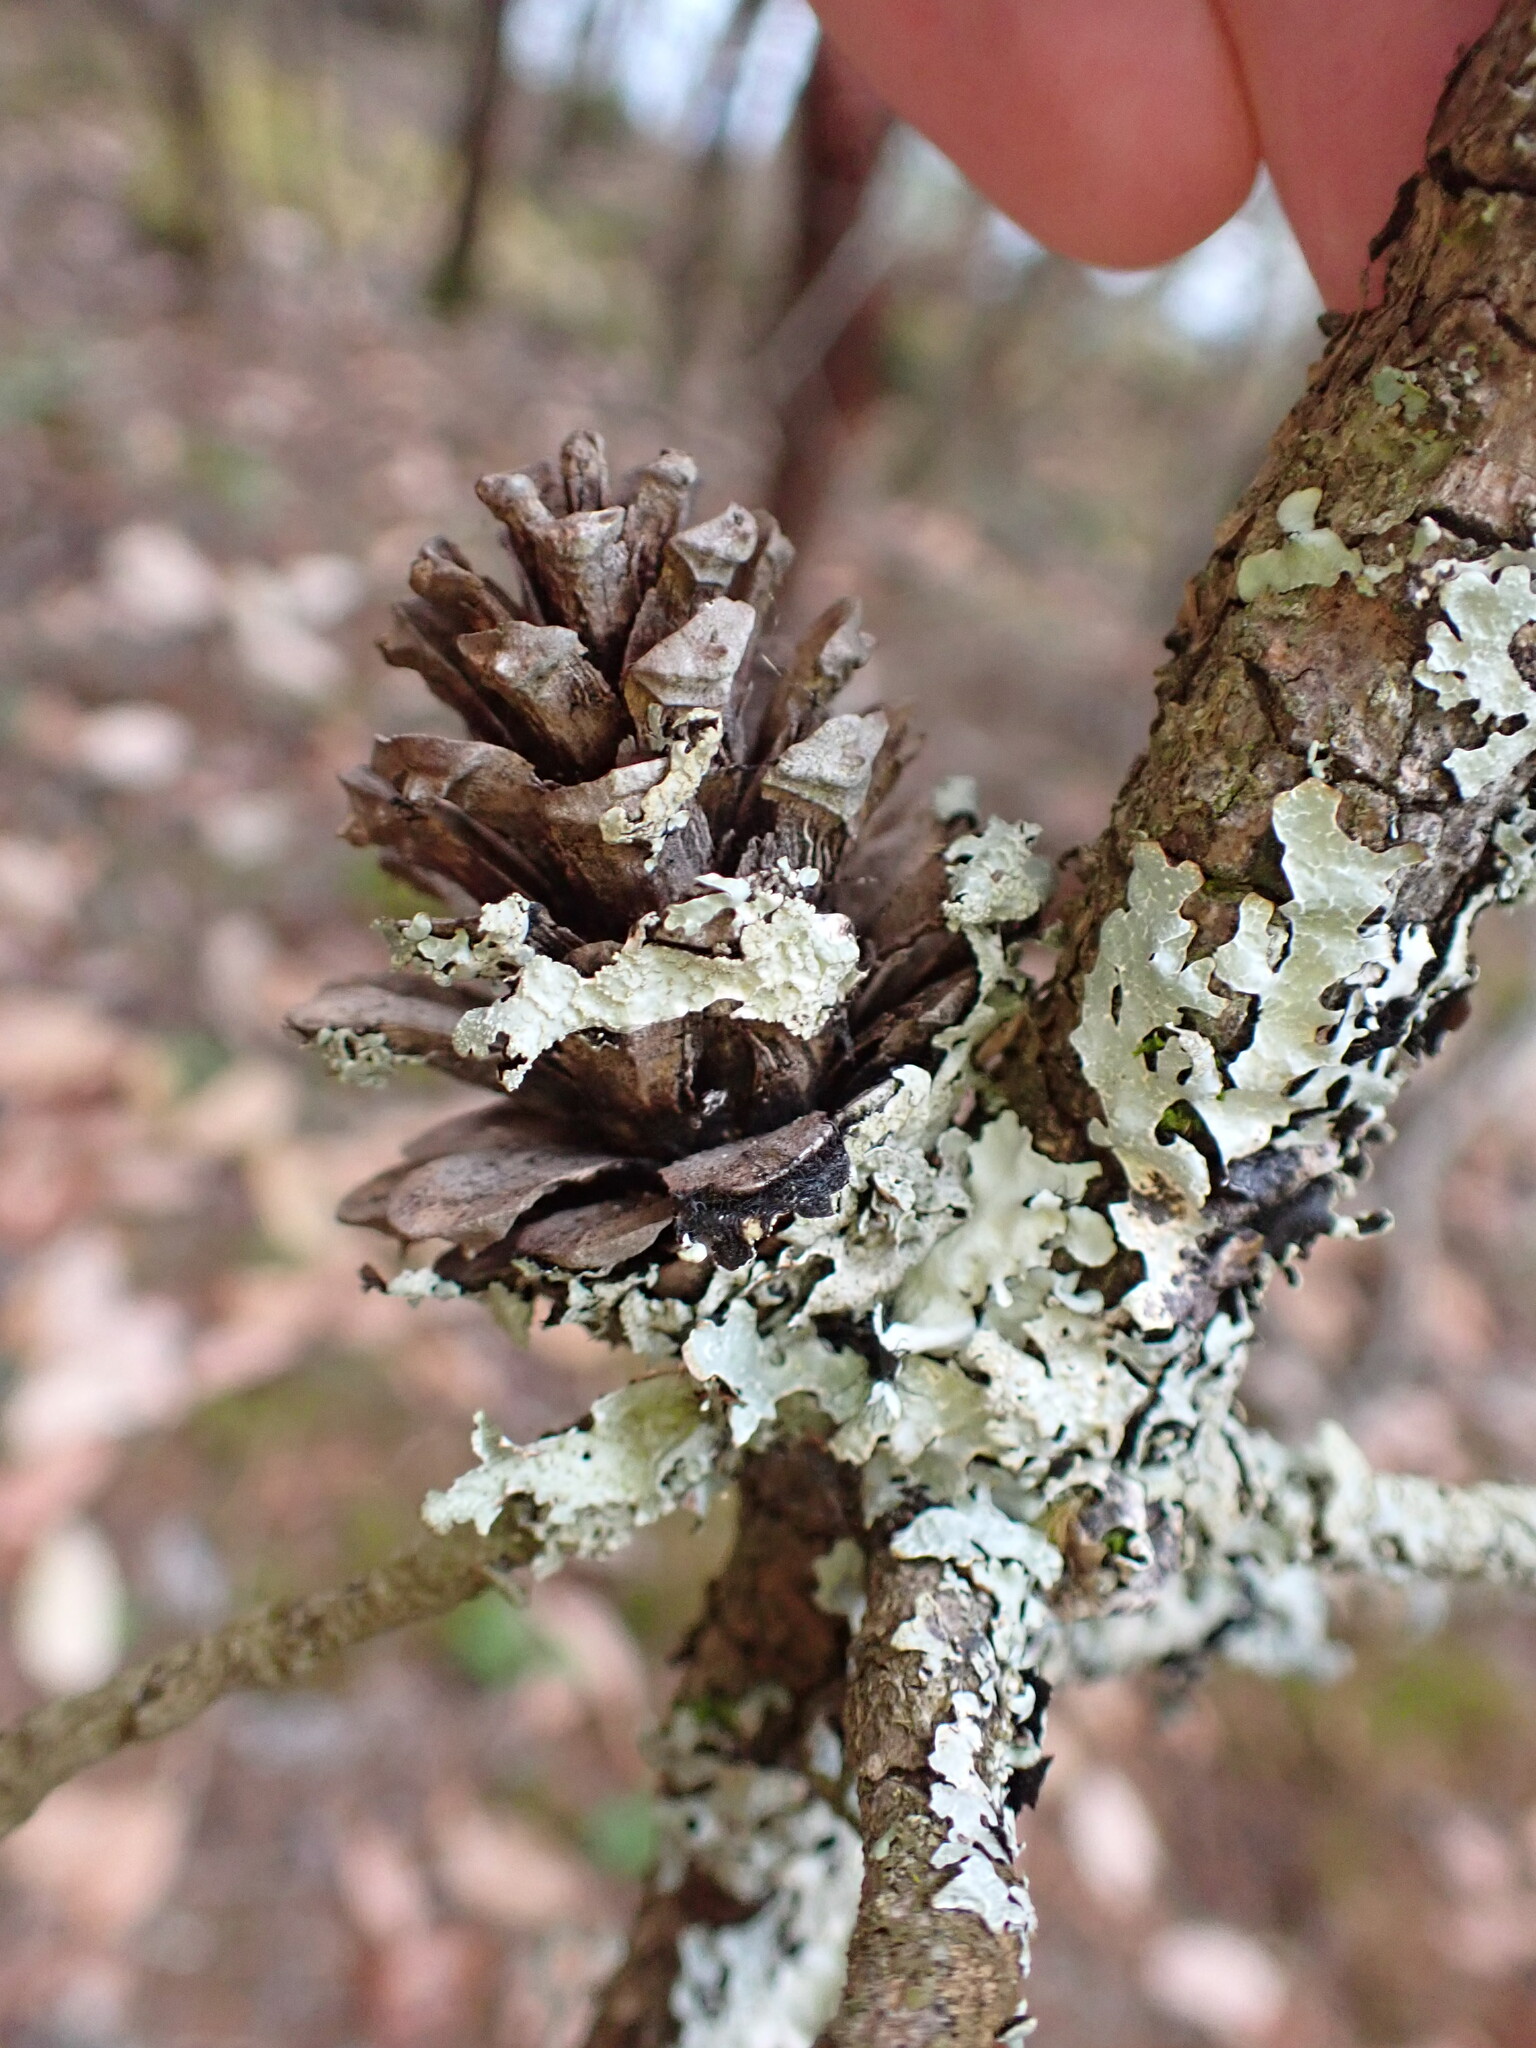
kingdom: Plantae
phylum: Tracheophyta
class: Pinopsida
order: Pinales
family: Pinaceae
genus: Pinus
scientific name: Pinus contorta
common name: Lodgepole pine
